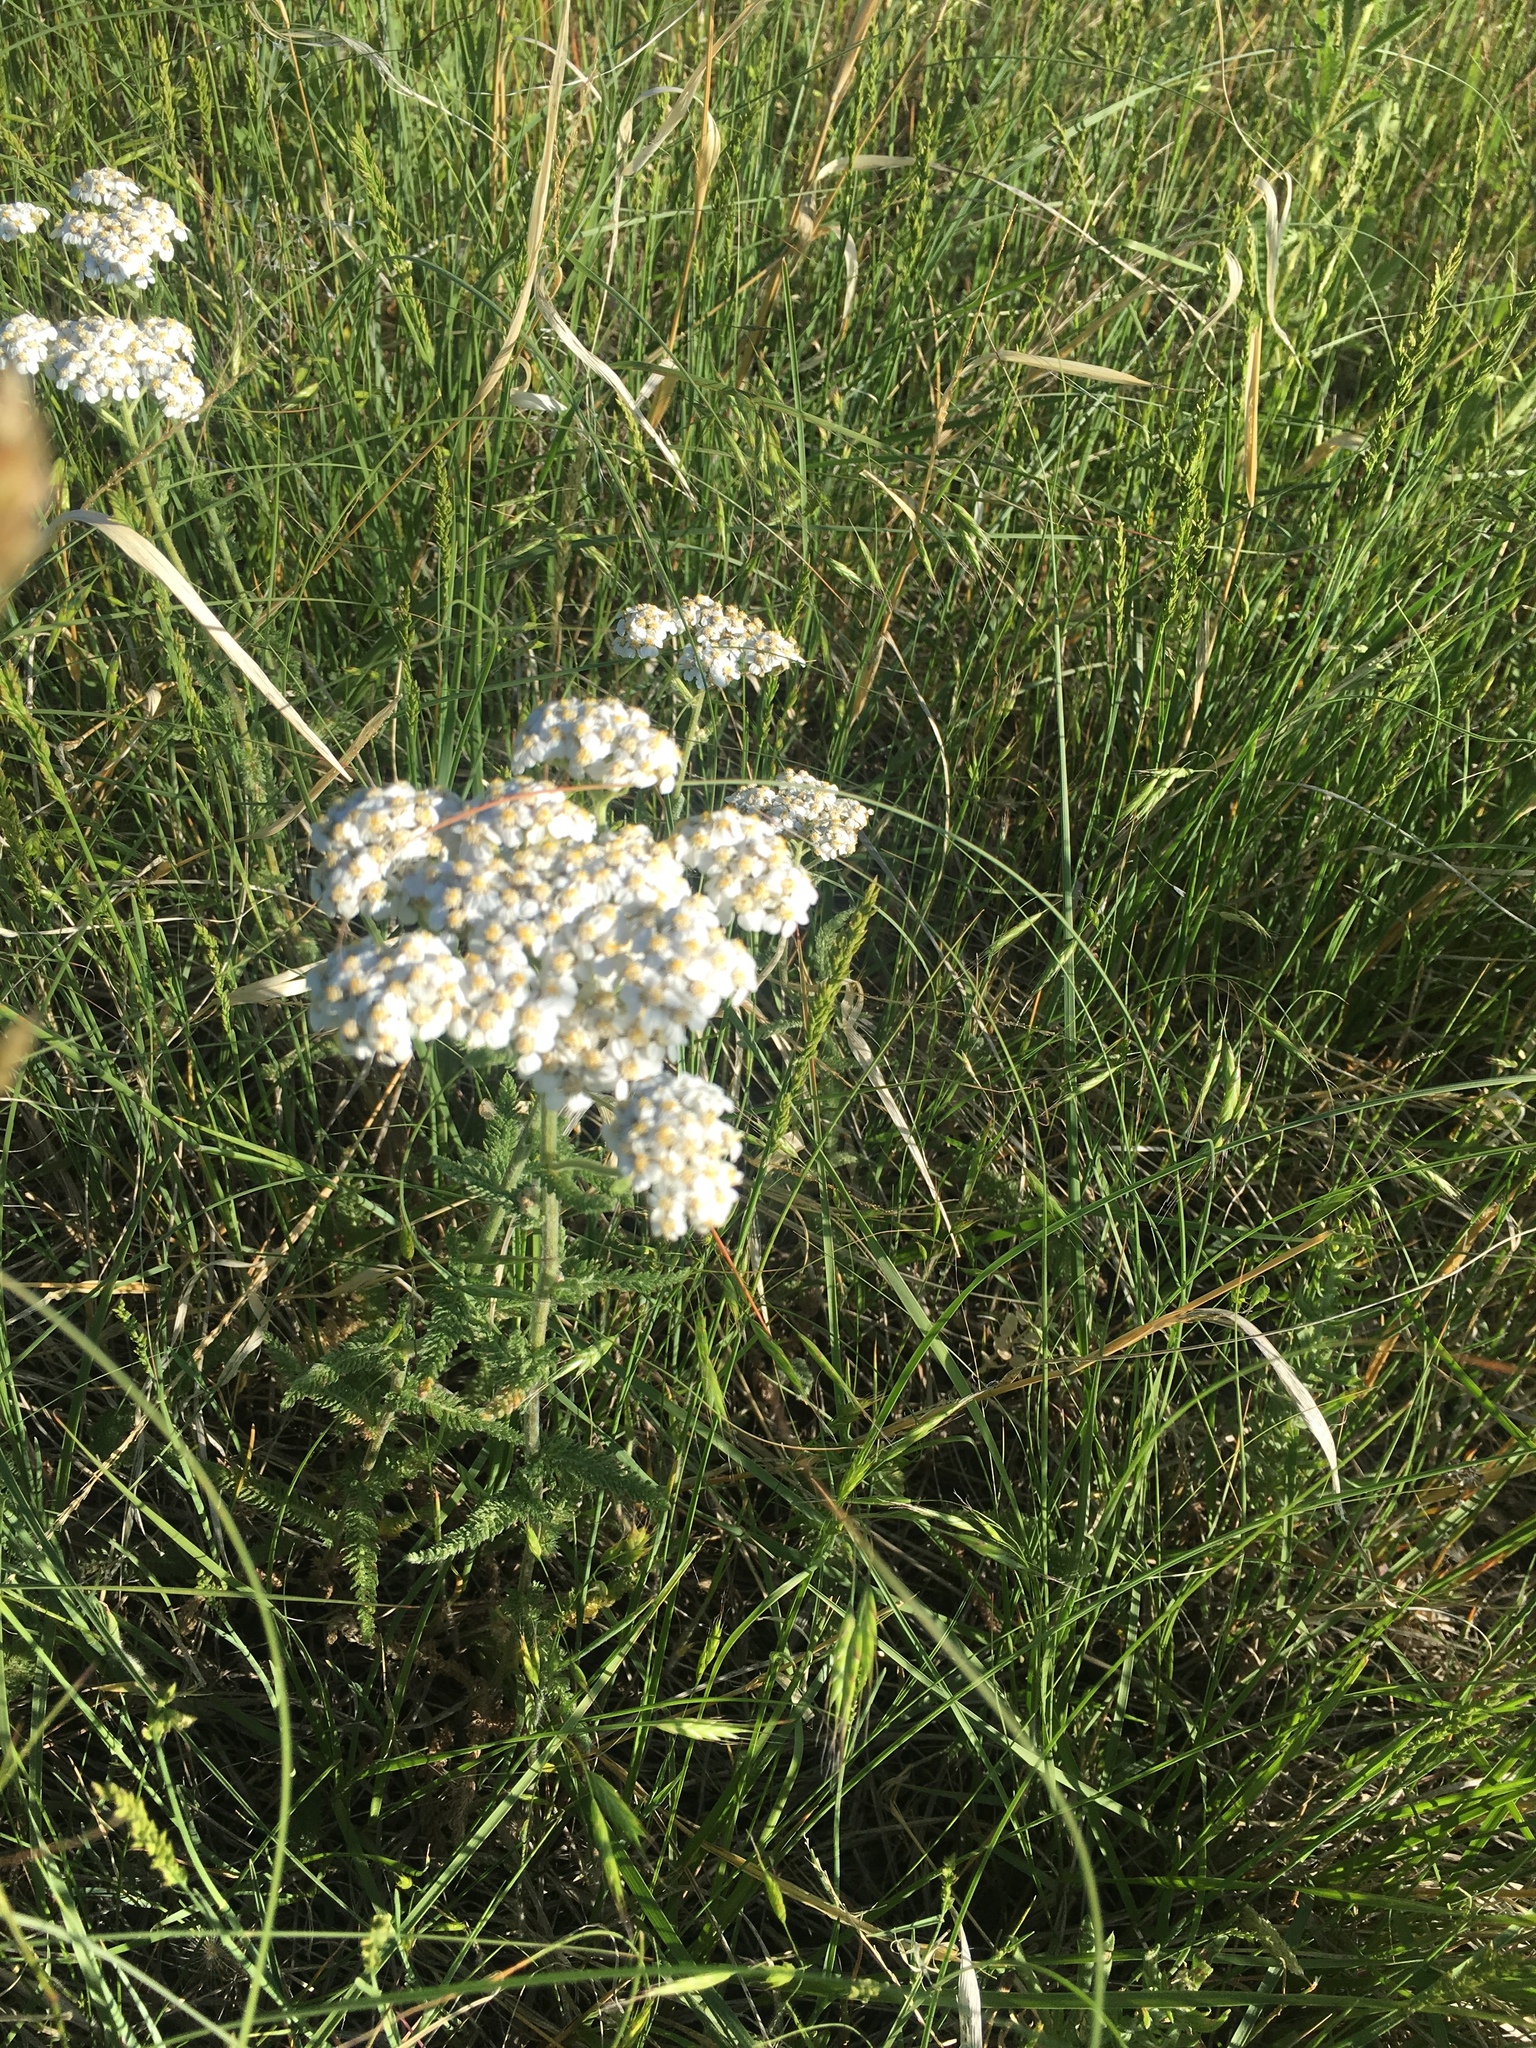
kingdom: Plantae
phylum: Tracheophyta
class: Magnoliopsida
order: Asterales
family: Asteraceae
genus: Achillea
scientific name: Achillea millefolium
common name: Yarrow
